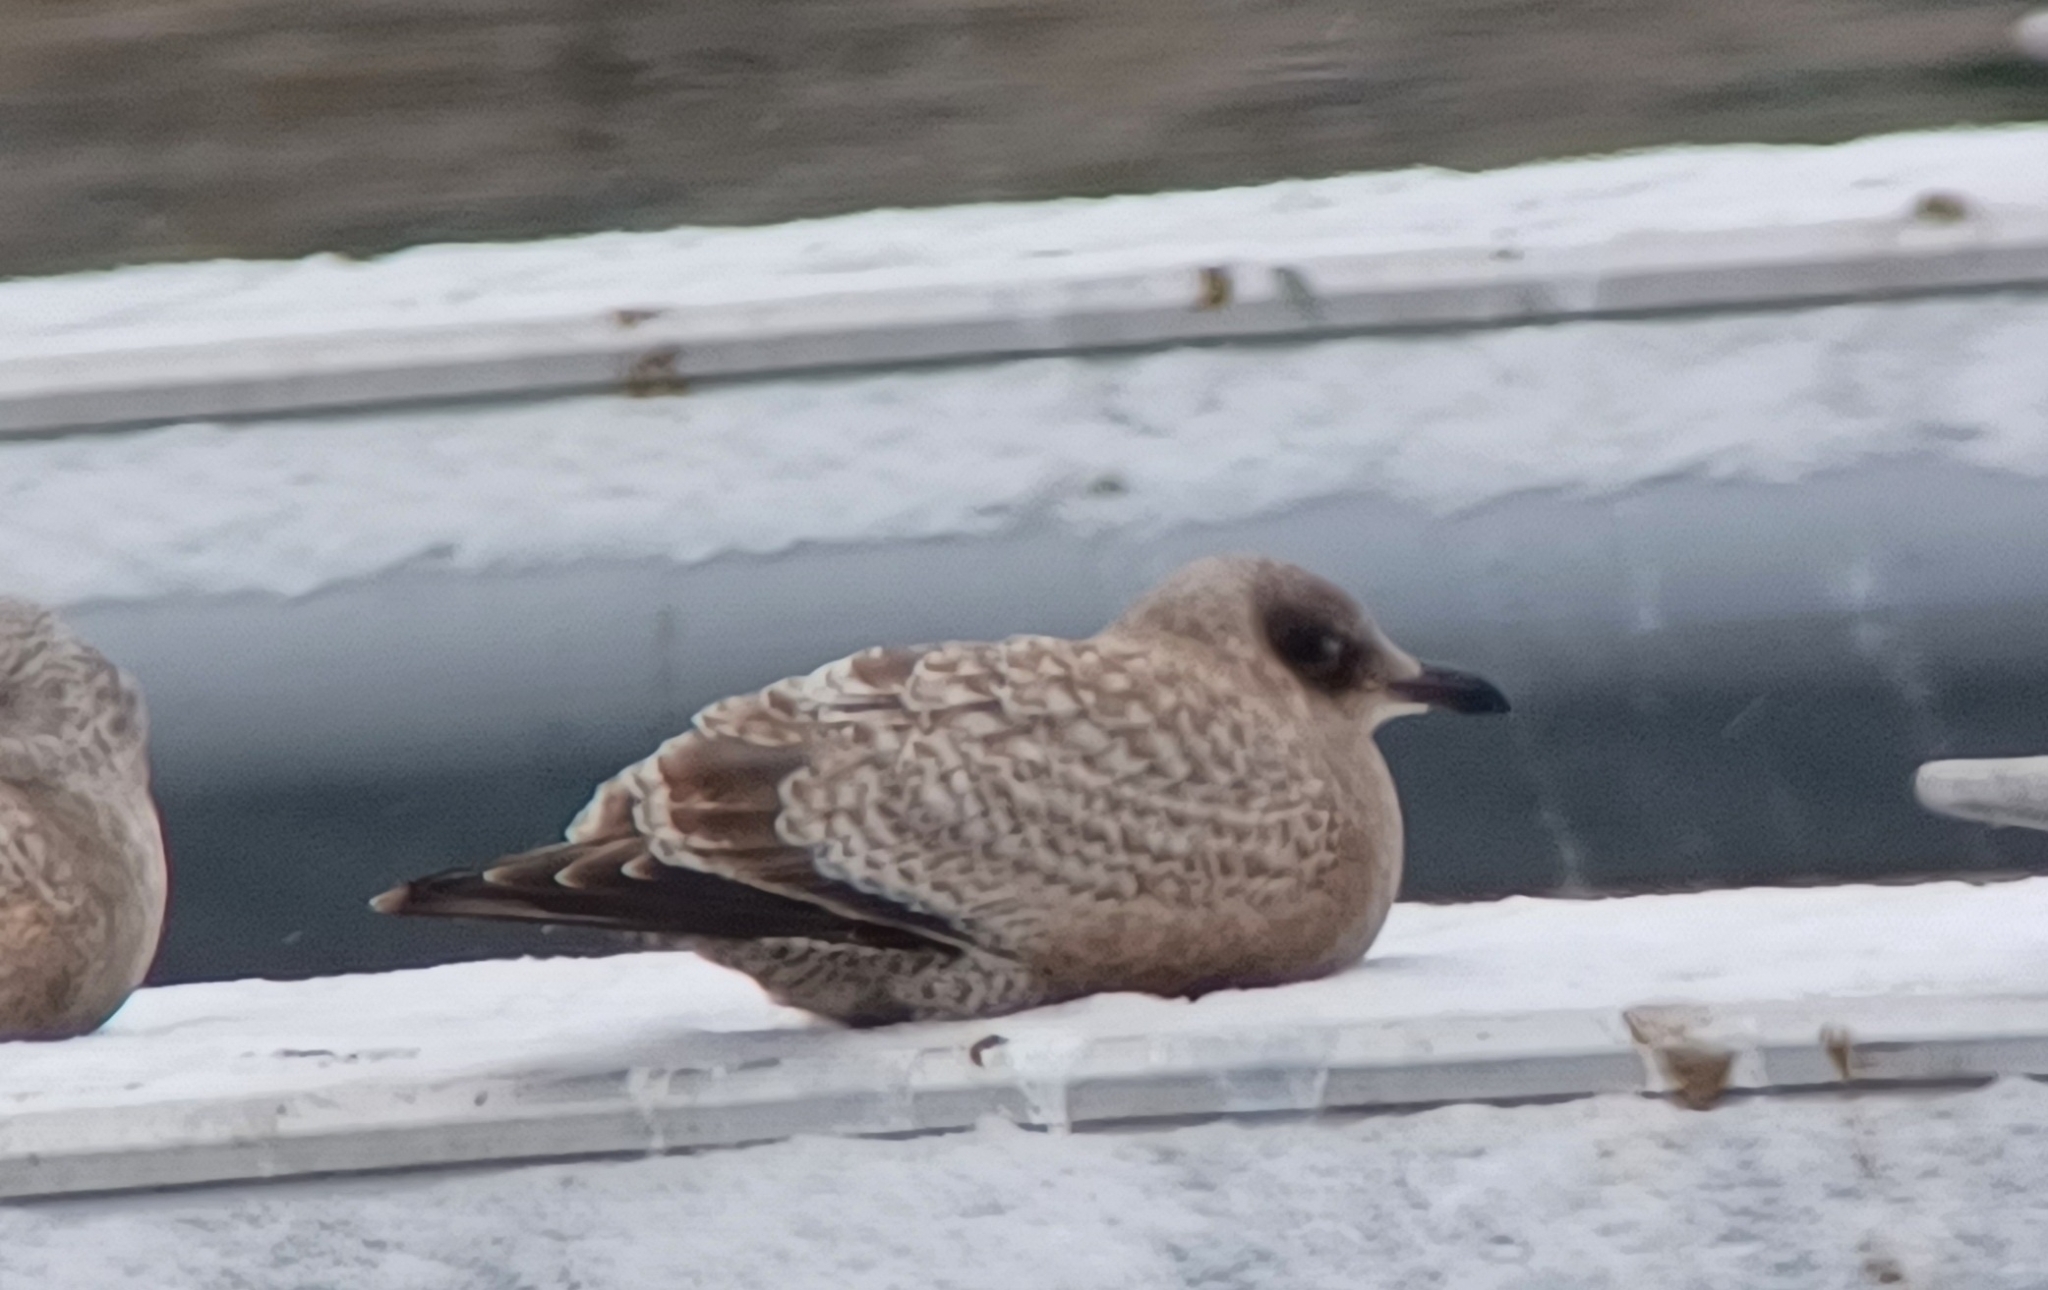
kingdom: Animalia
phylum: Chordata
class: Aves
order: Charadriiformes
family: Laridae
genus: Larus
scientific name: Larus glaucoides
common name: Iceland gull
